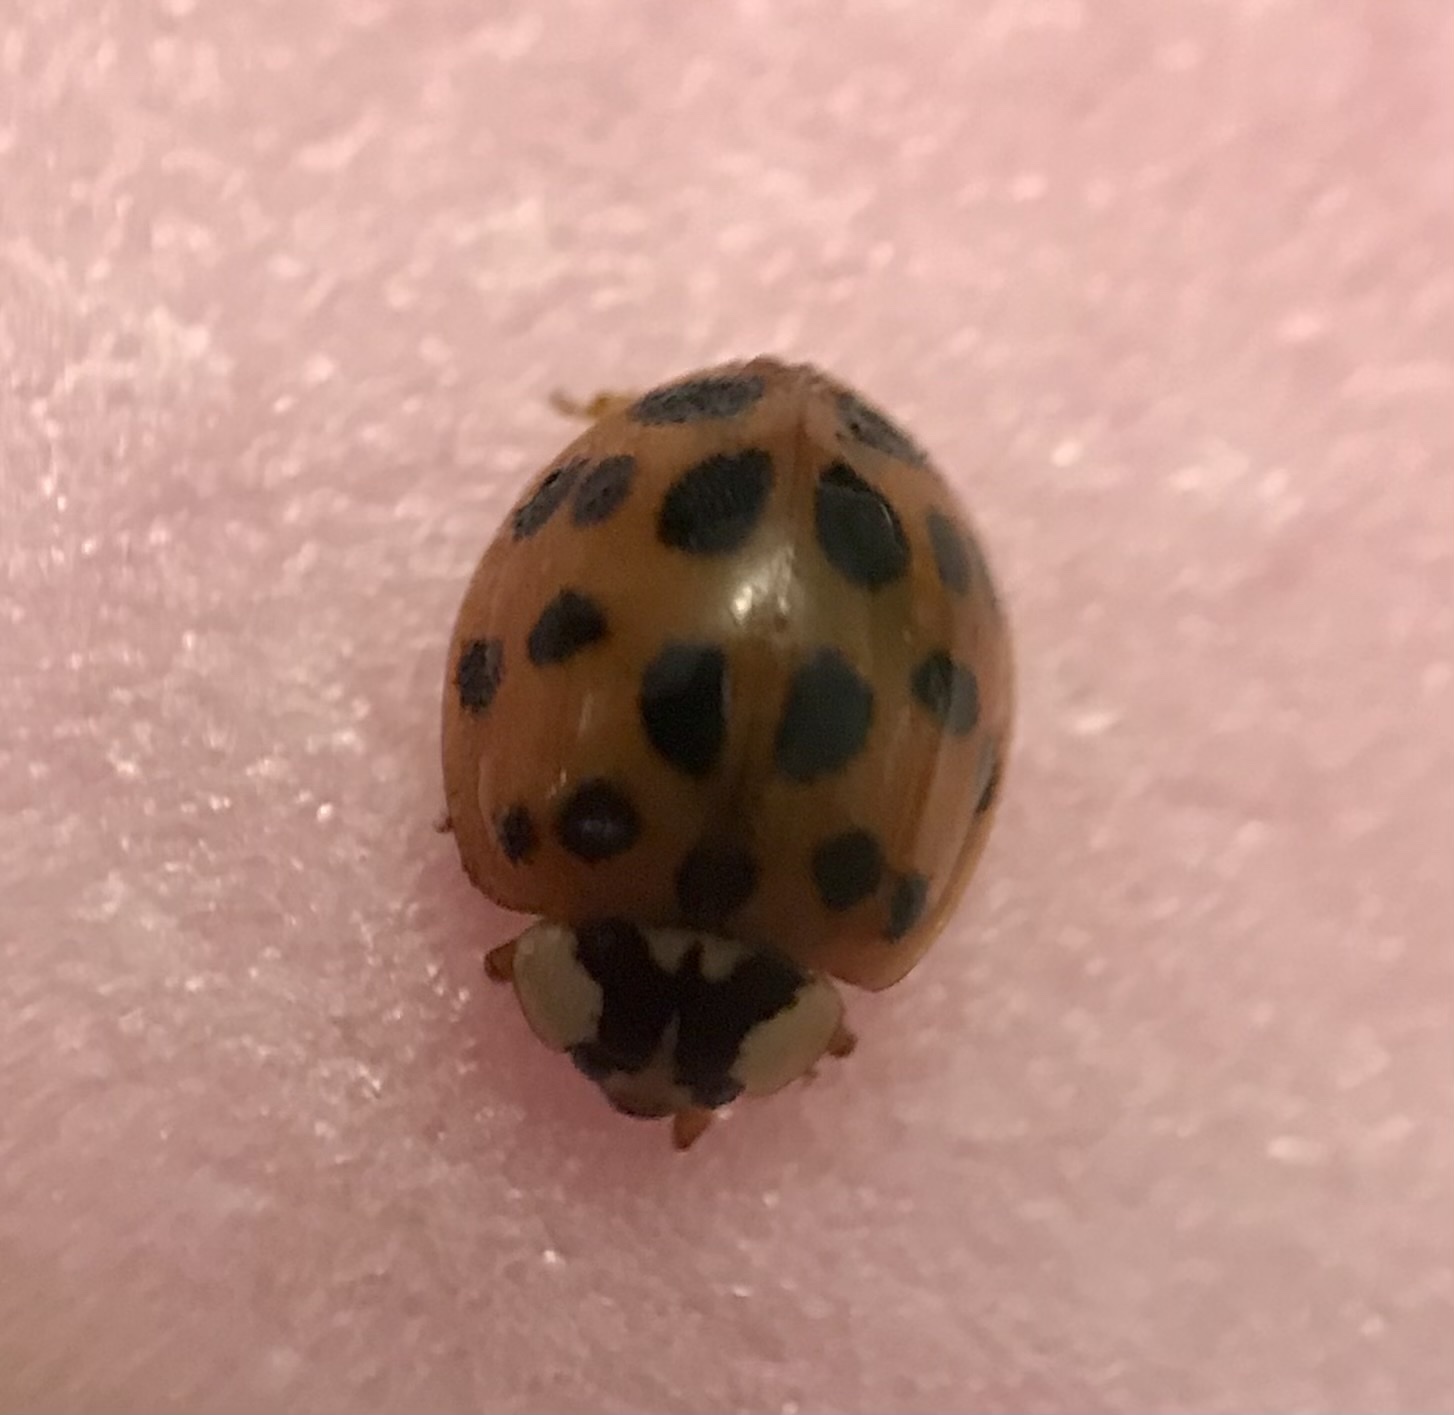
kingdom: Animalia
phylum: Arthropoda
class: Insecta
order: Coleoptera
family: Coccinellidae
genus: Harmonia
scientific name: Harmonia axyridis
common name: Harlequin ladybird
